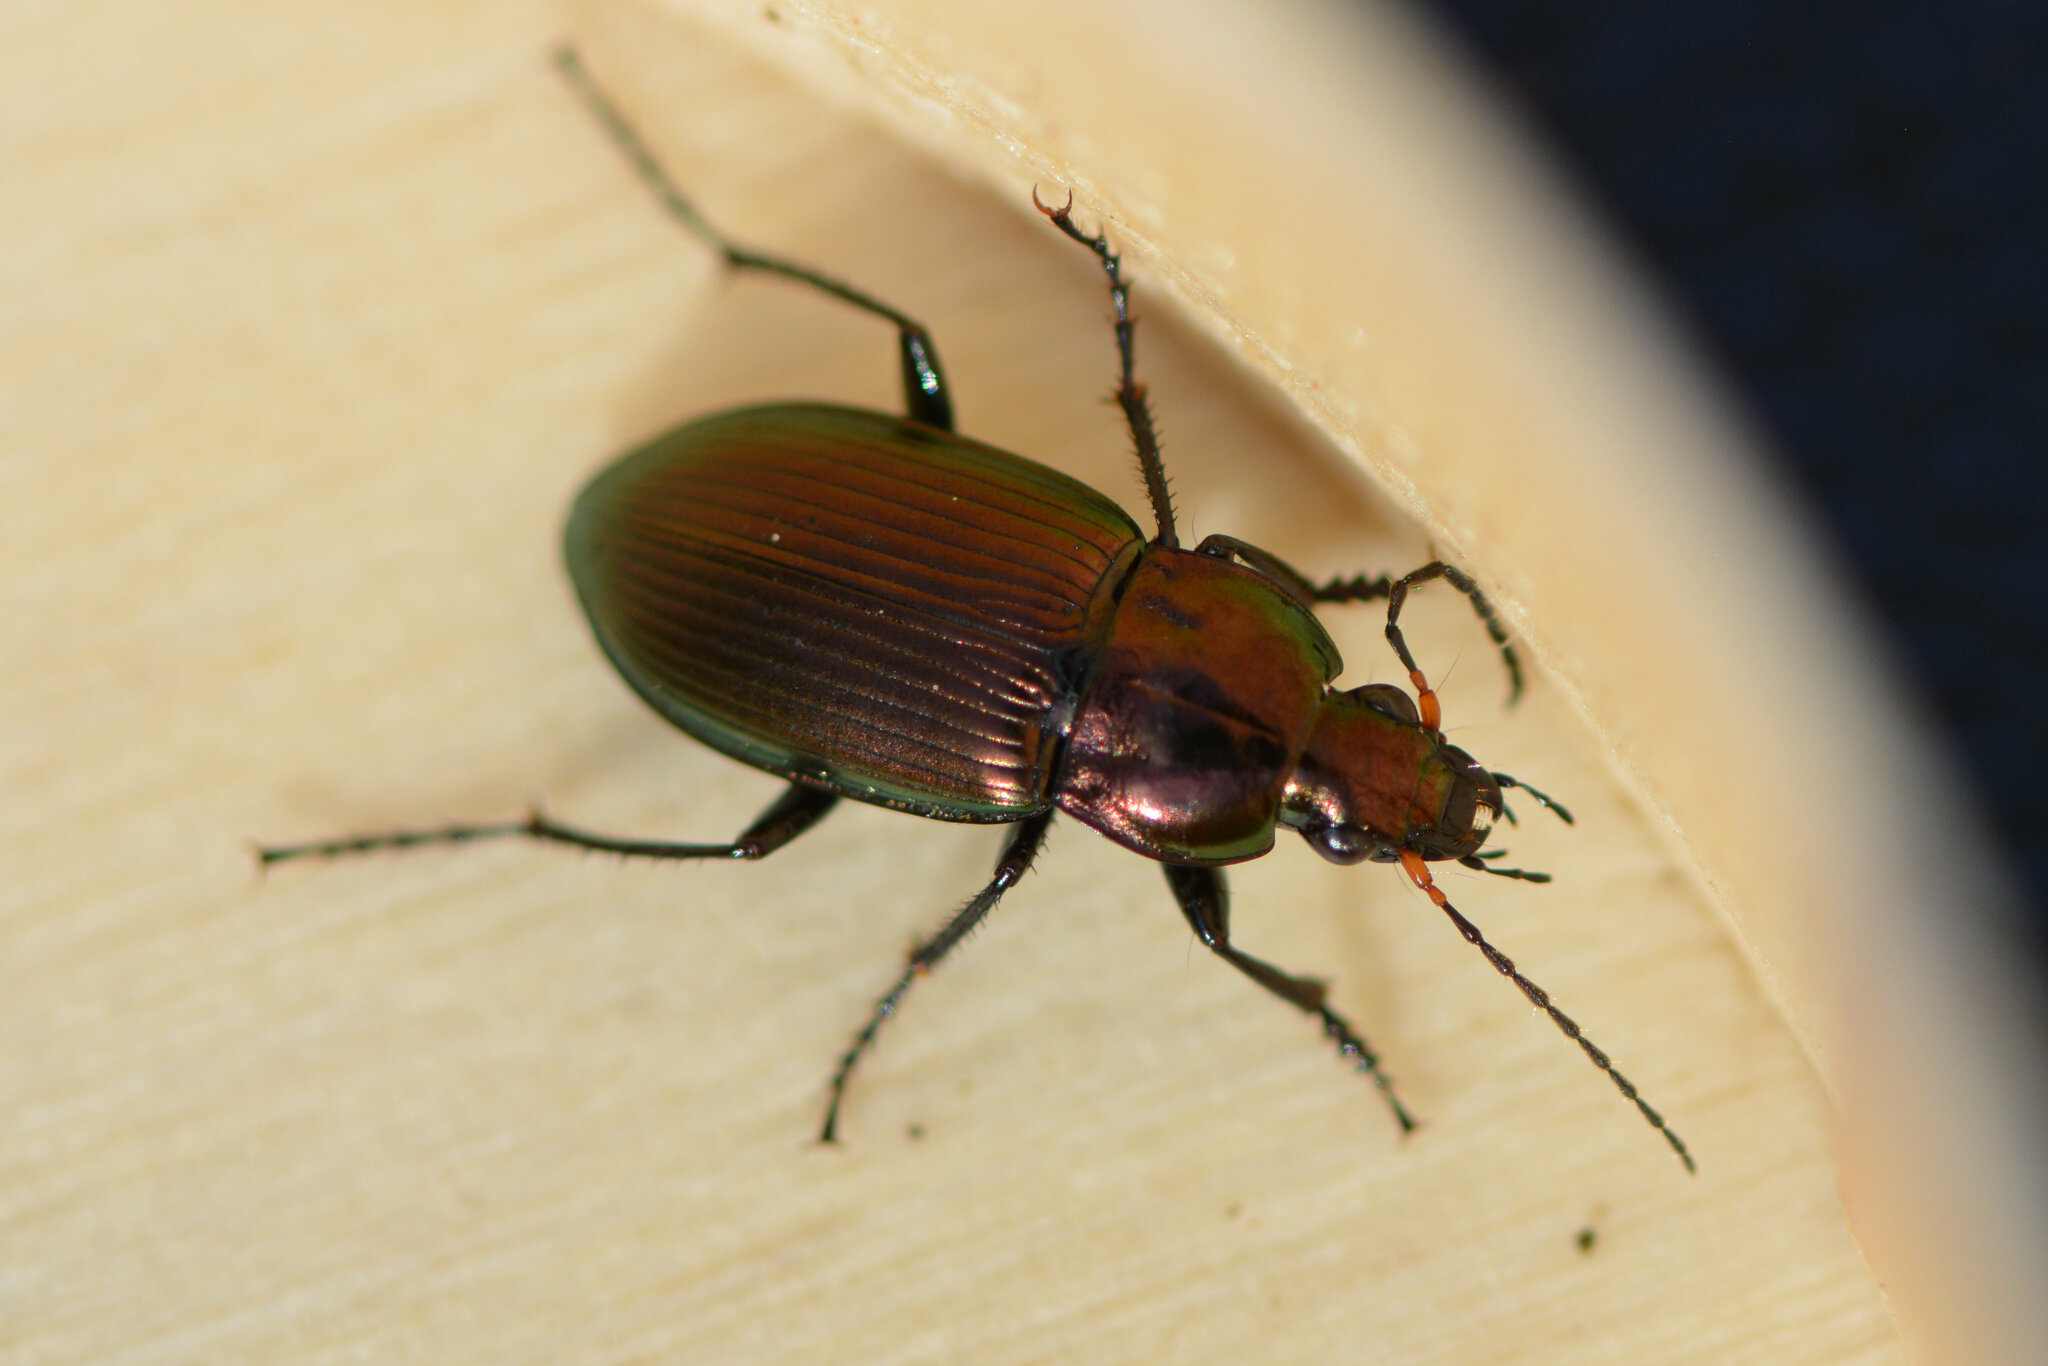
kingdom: Animalia
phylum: Arthropoda
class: Insecta
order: Coleoptera
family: Carabidae
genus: Poecilus
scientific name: Poecilus cupreus
